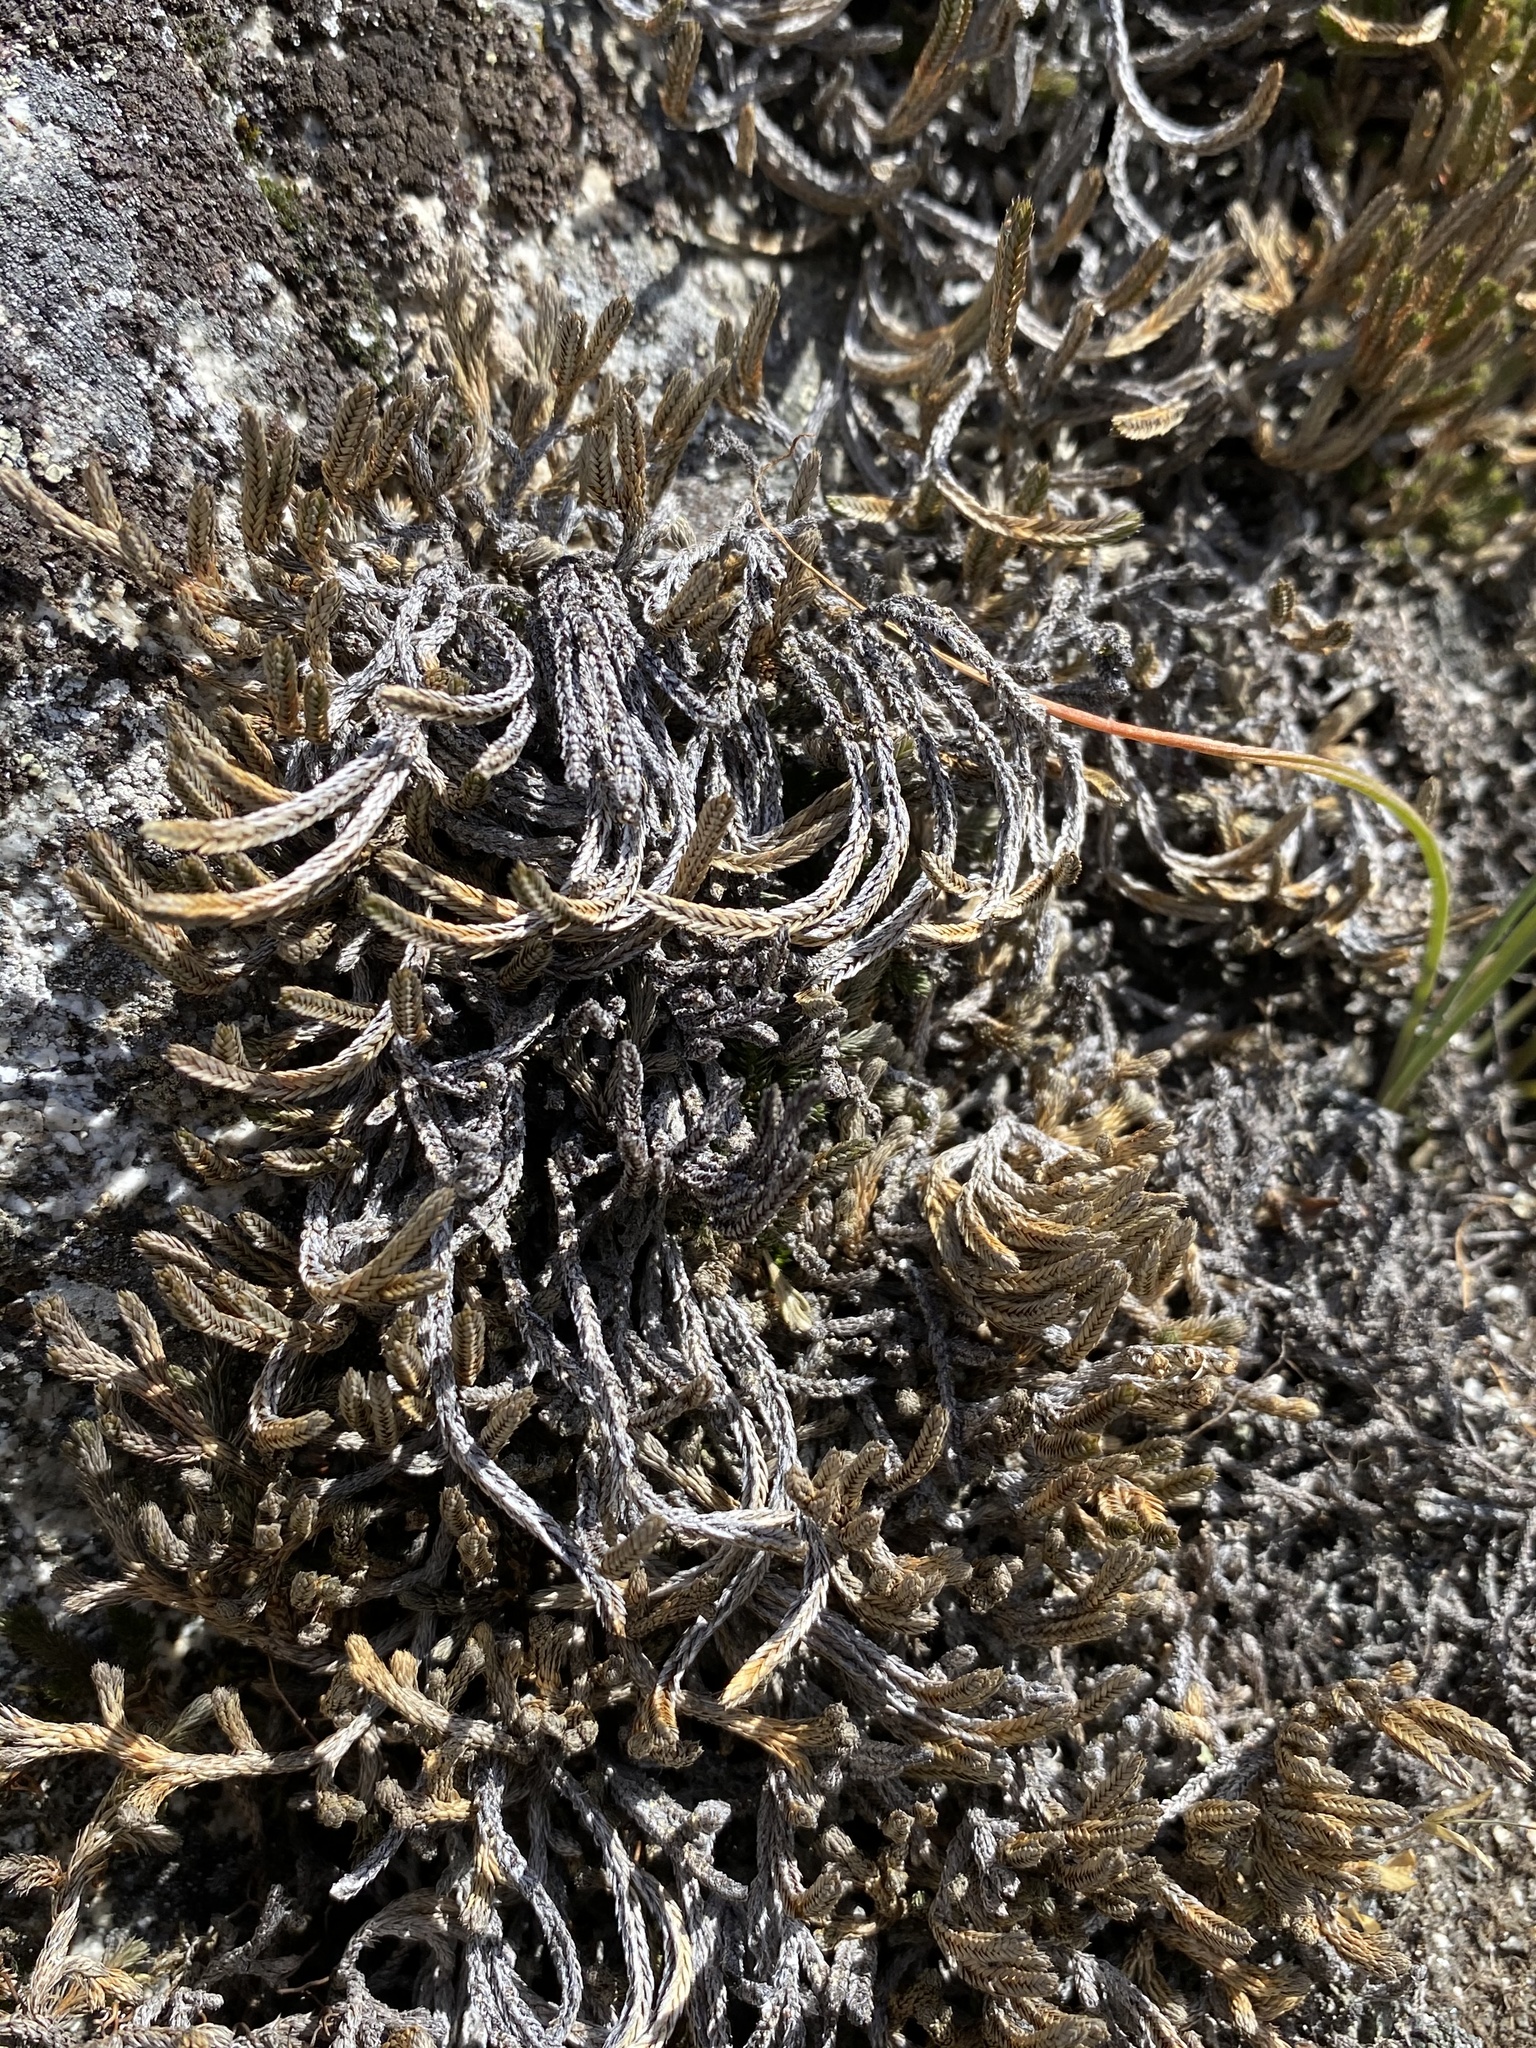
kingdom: Plantae
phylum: Tracheophyta
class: Lycopodiopsida
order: Selaginellales
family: Selaginellaceae
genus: Selaginella
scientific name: Selaginella wallacei
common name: Wallace's selaginella
